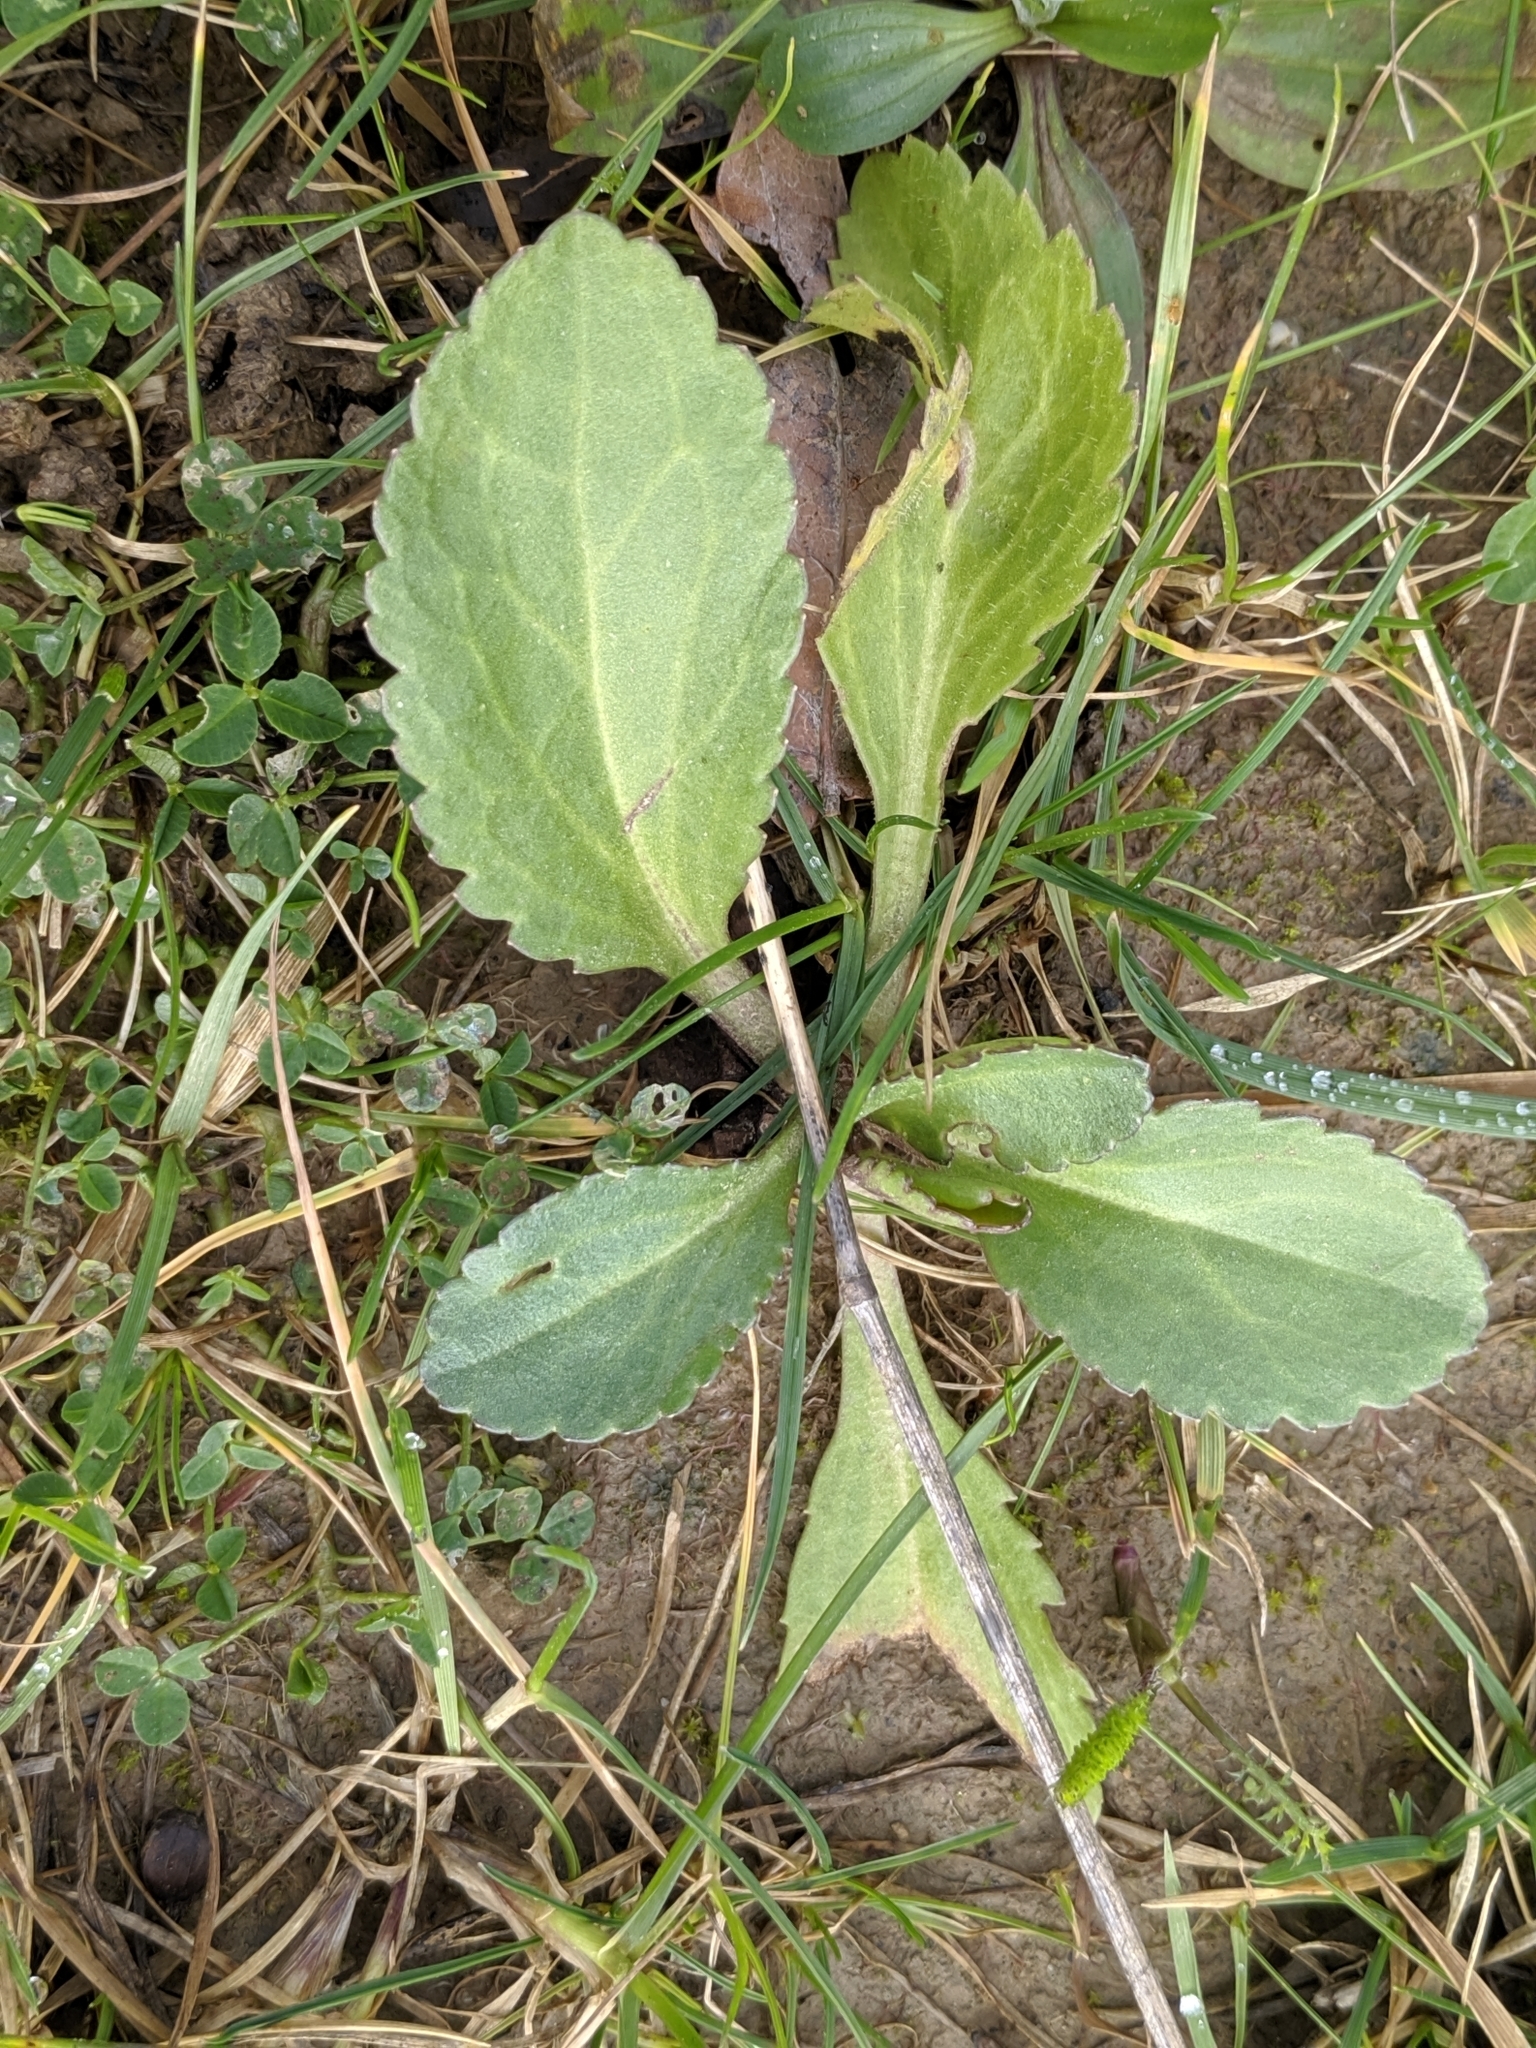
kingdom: Plantae
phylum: Tracheophyta
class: Magnoliopsida
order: Asterales
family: Asteraceae
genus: Onopordum
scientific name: Onopordum acanthium
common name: Scotch thistle
